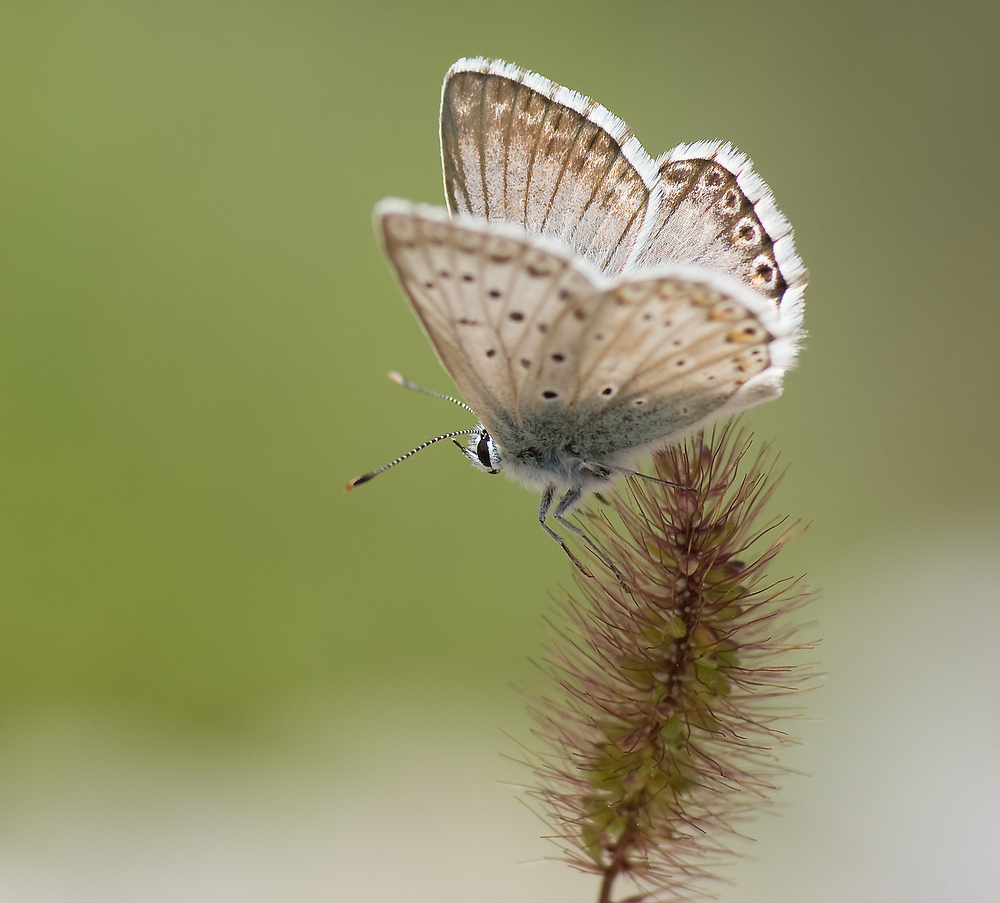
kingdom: Animalia
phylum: Arthropoda
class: Insecta
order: Lepidoptera
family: Lycaenidae
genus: Lysandra
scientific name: Lysandra hispana
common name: Provence chalkhill blue
